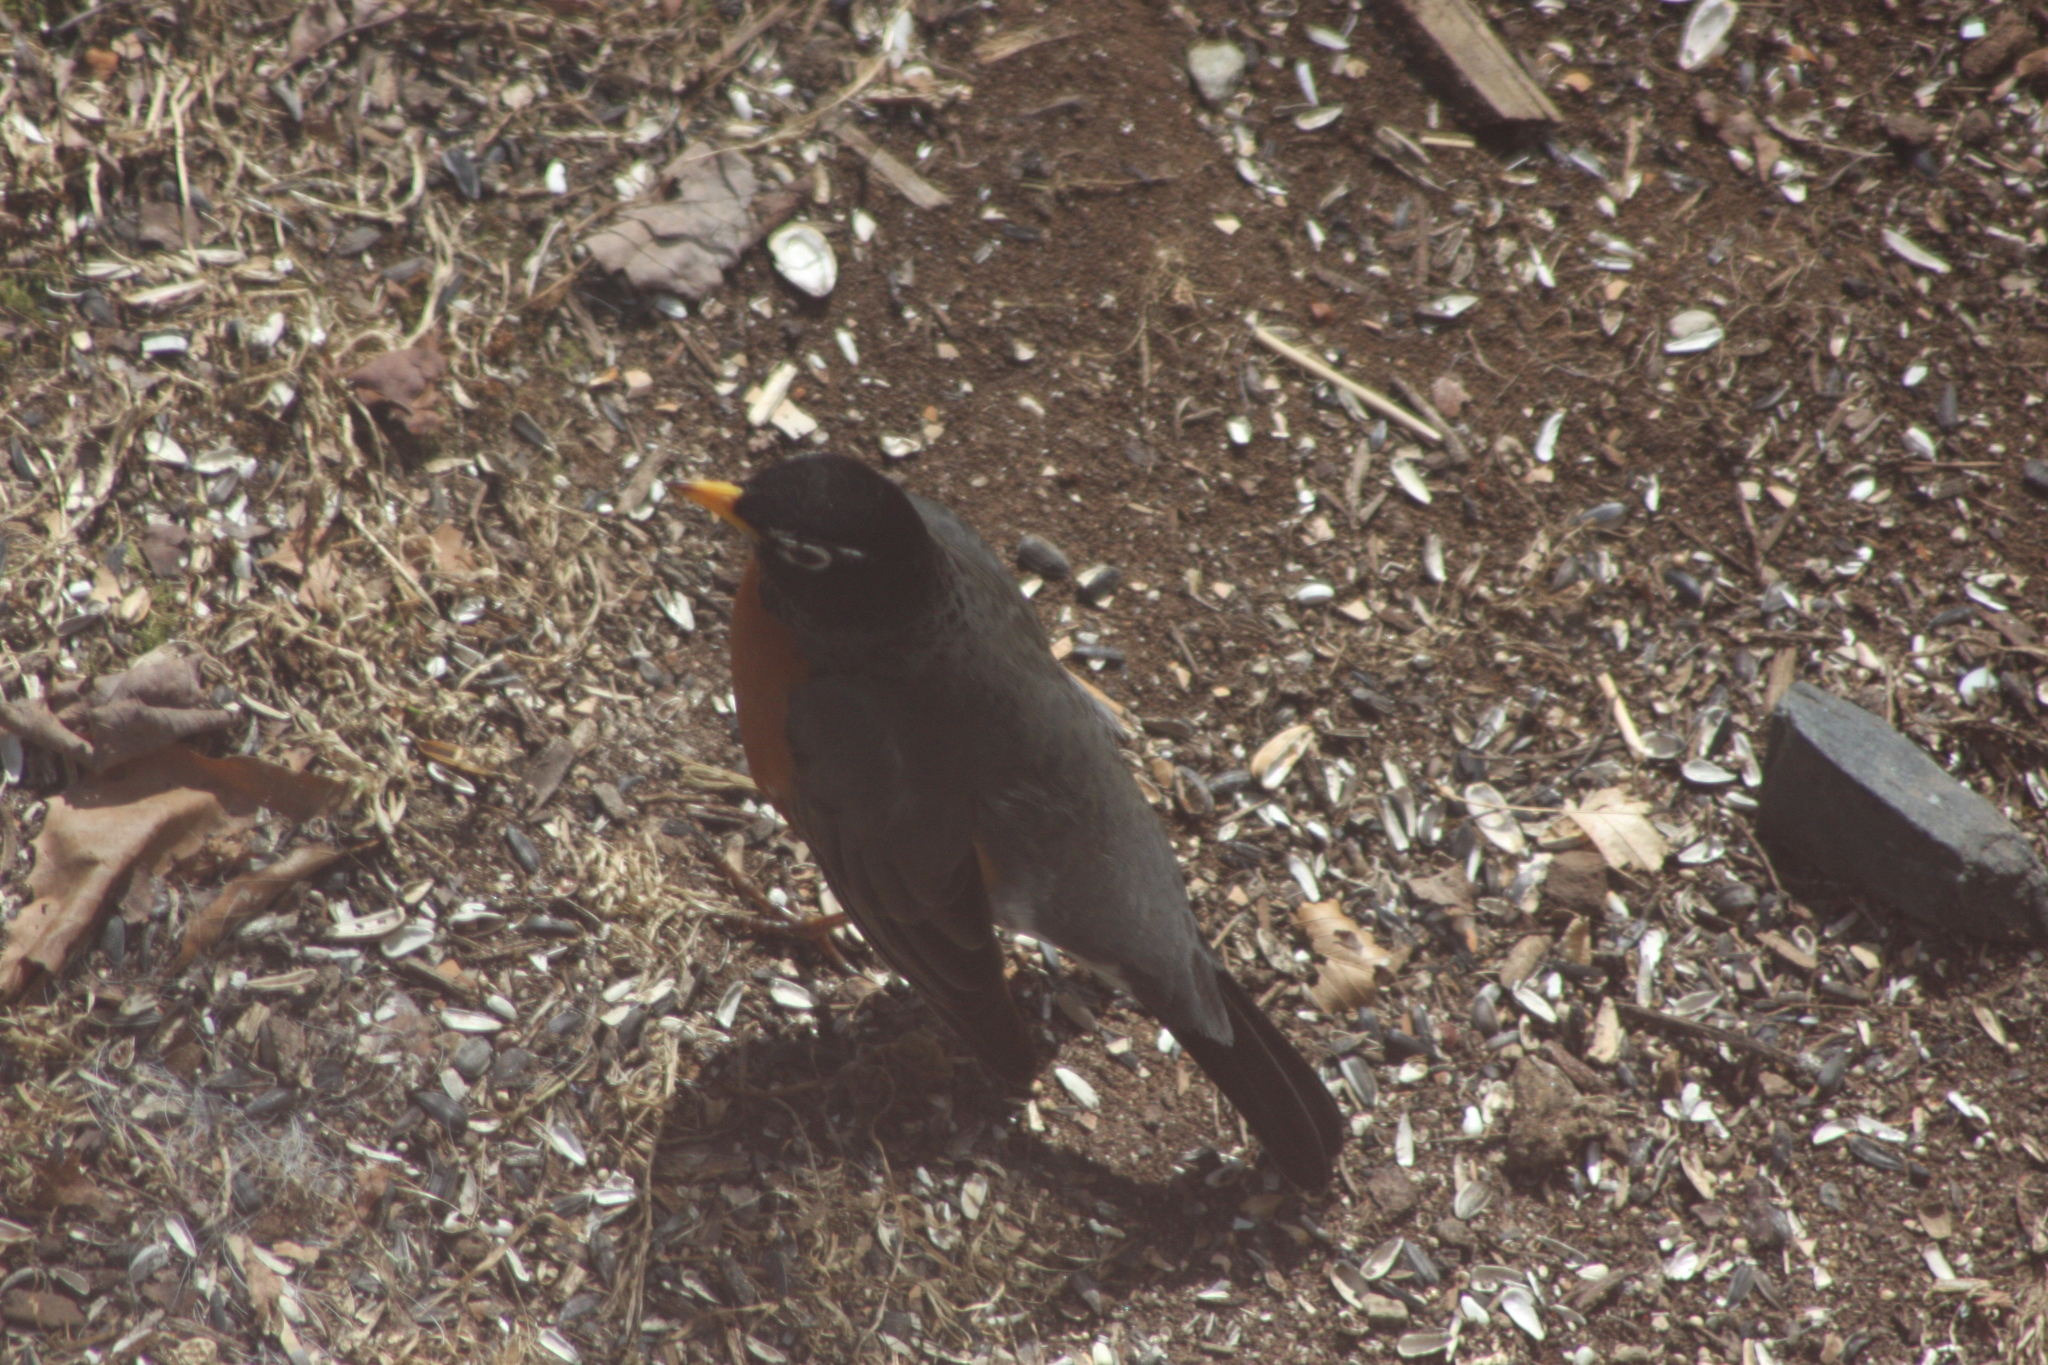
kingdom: Animalia
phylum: Chordata
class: Aves
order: Passeriformes
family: Turdidae
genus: Turdus
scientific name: Turdus migratorius
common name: American robin
